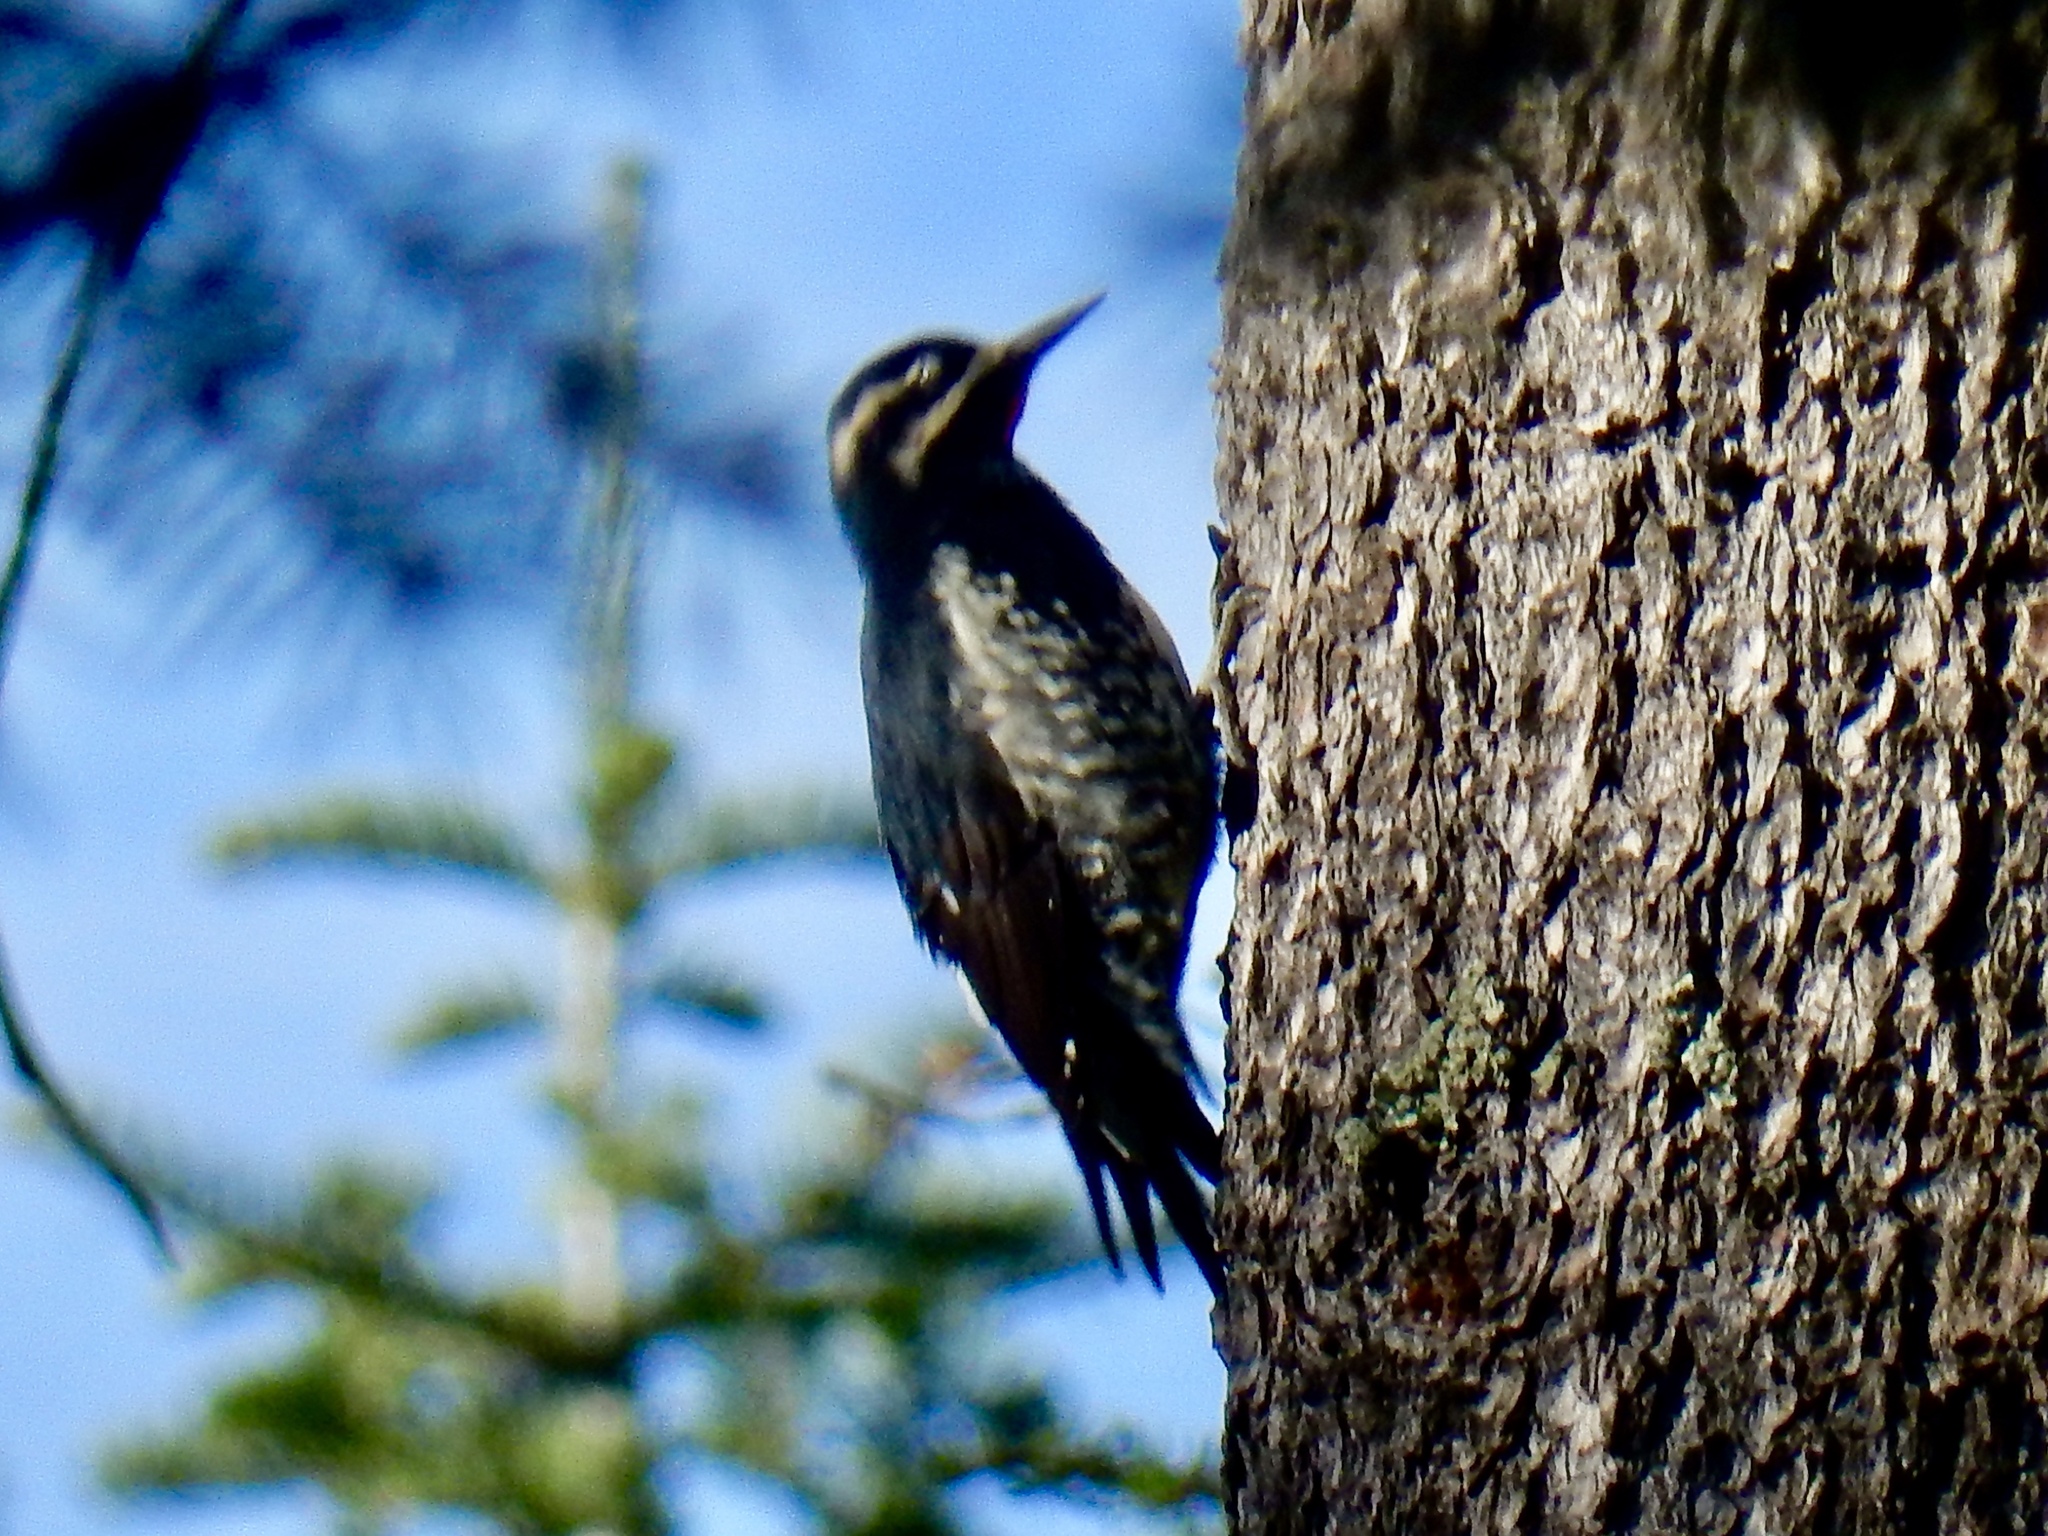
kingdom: Animalia
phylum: Chordata
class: Aves
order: Piciformes
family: Picidae
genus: Sphyrapicus
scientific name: Sphyrapicus thyroideus
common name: Williamson's sapsucker
